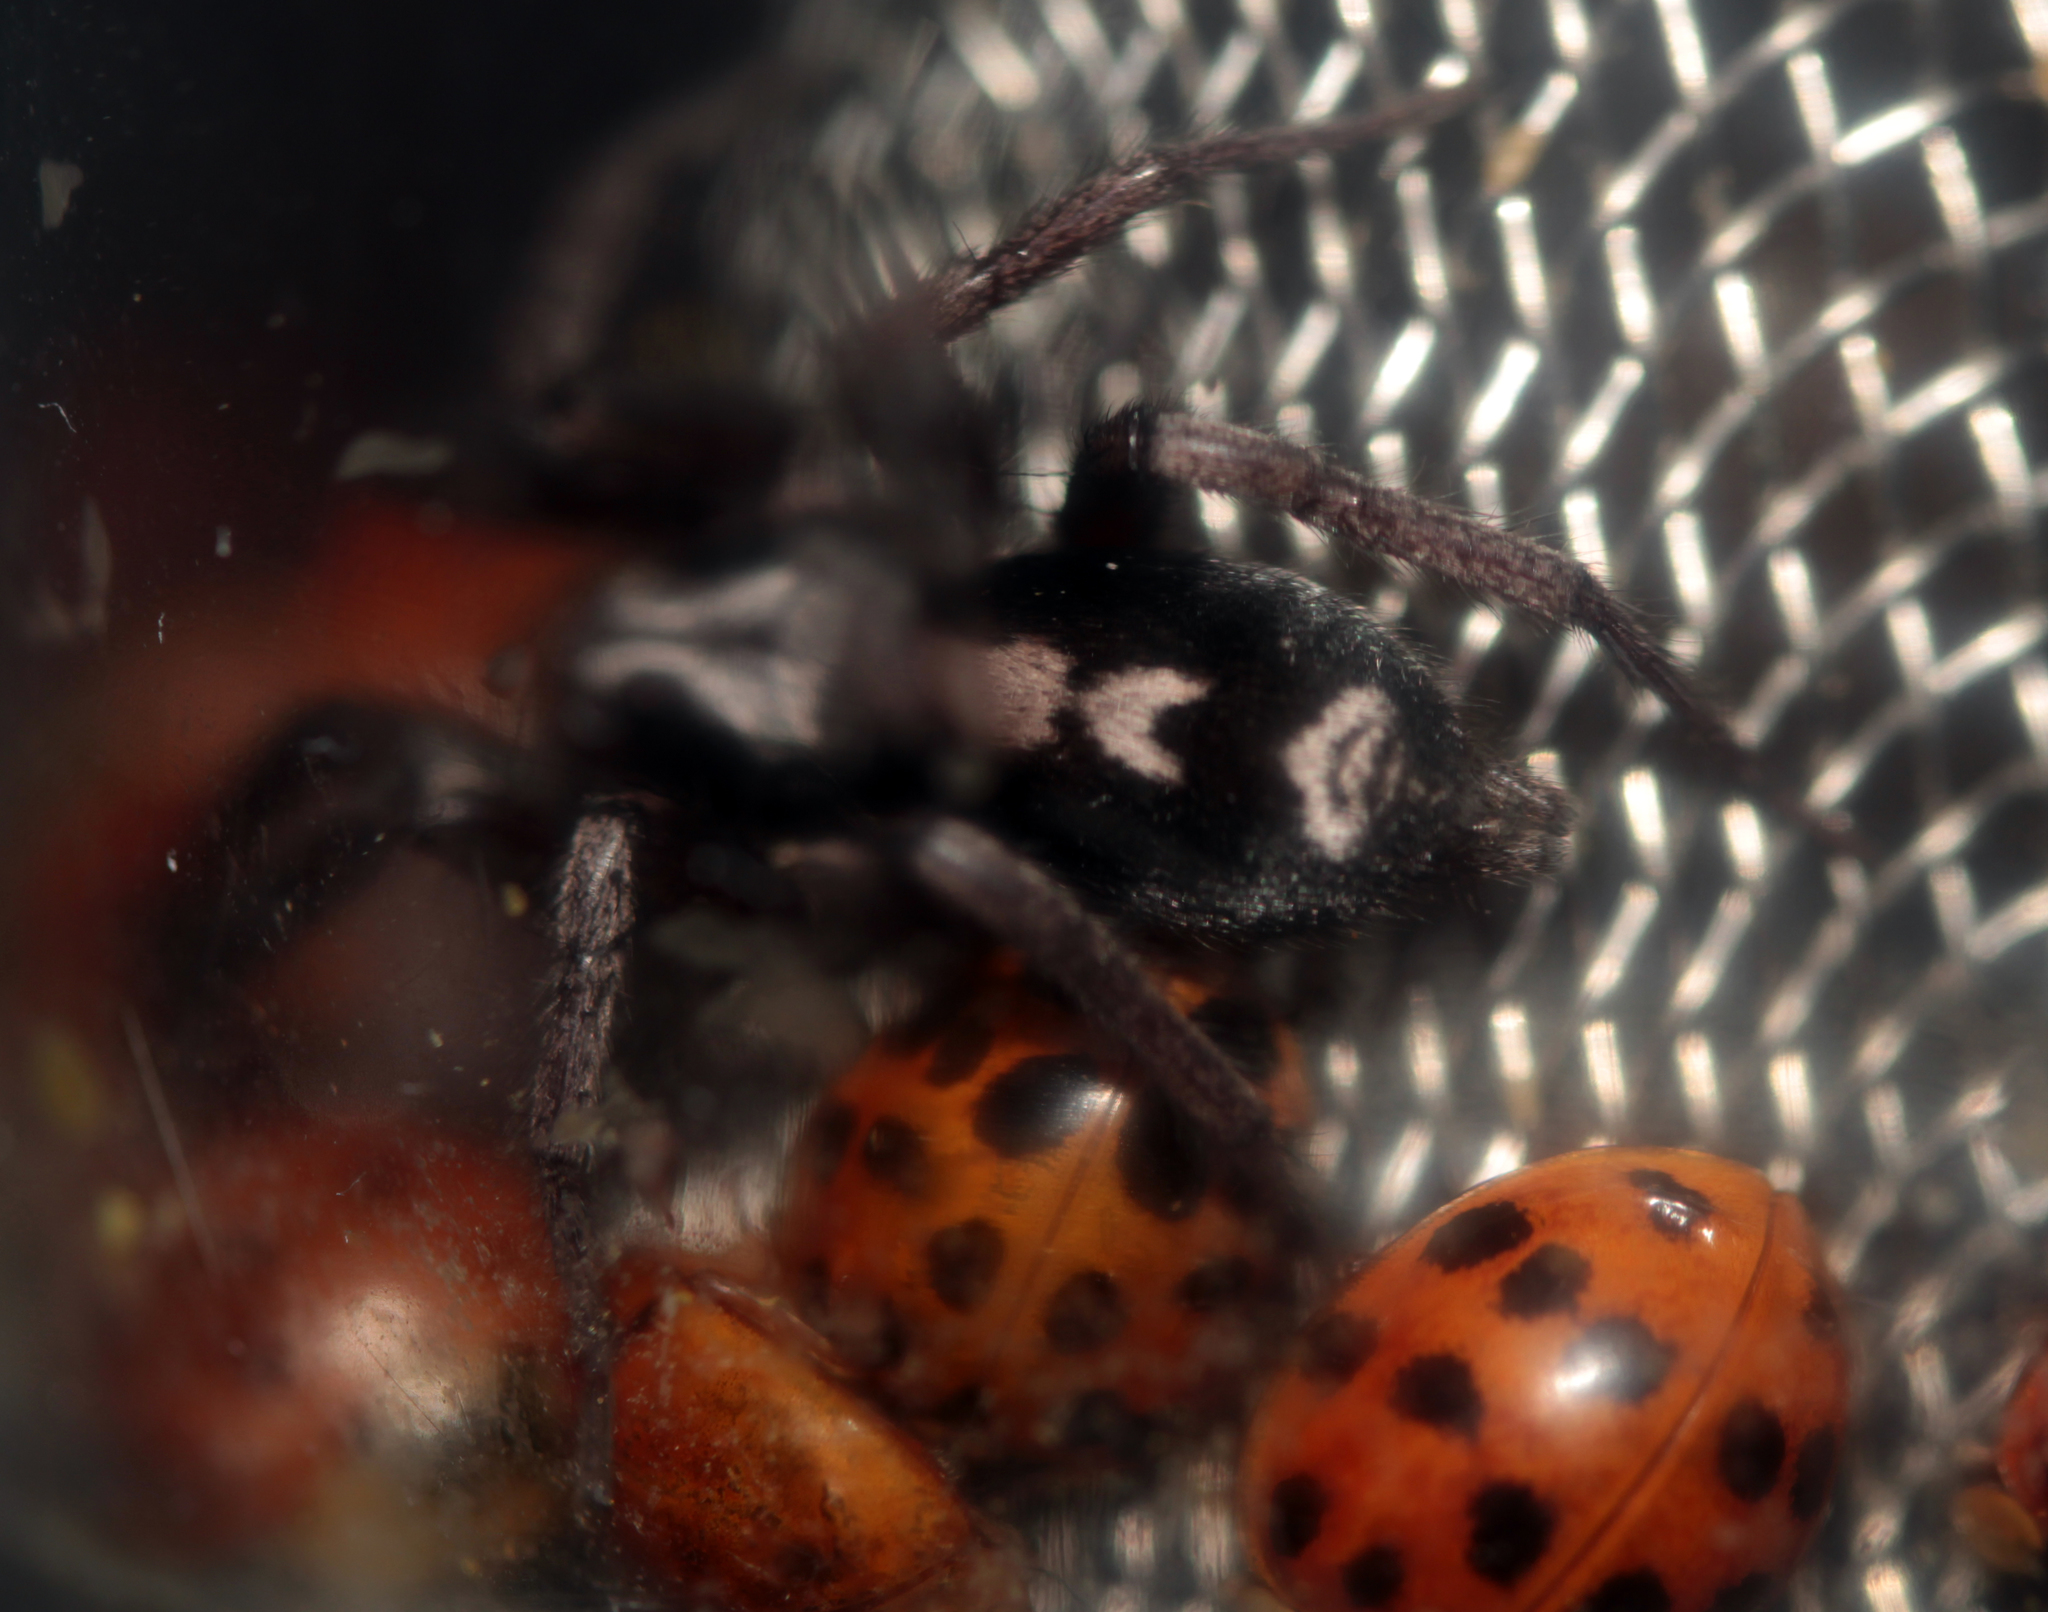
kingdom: Animalia
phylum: Arthropoda
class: Arachnida
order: Araneae
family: Gnaphosidae
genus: Herpyllus
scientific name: Herpyllus ecclesiasticus
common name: Eastern parson spider
